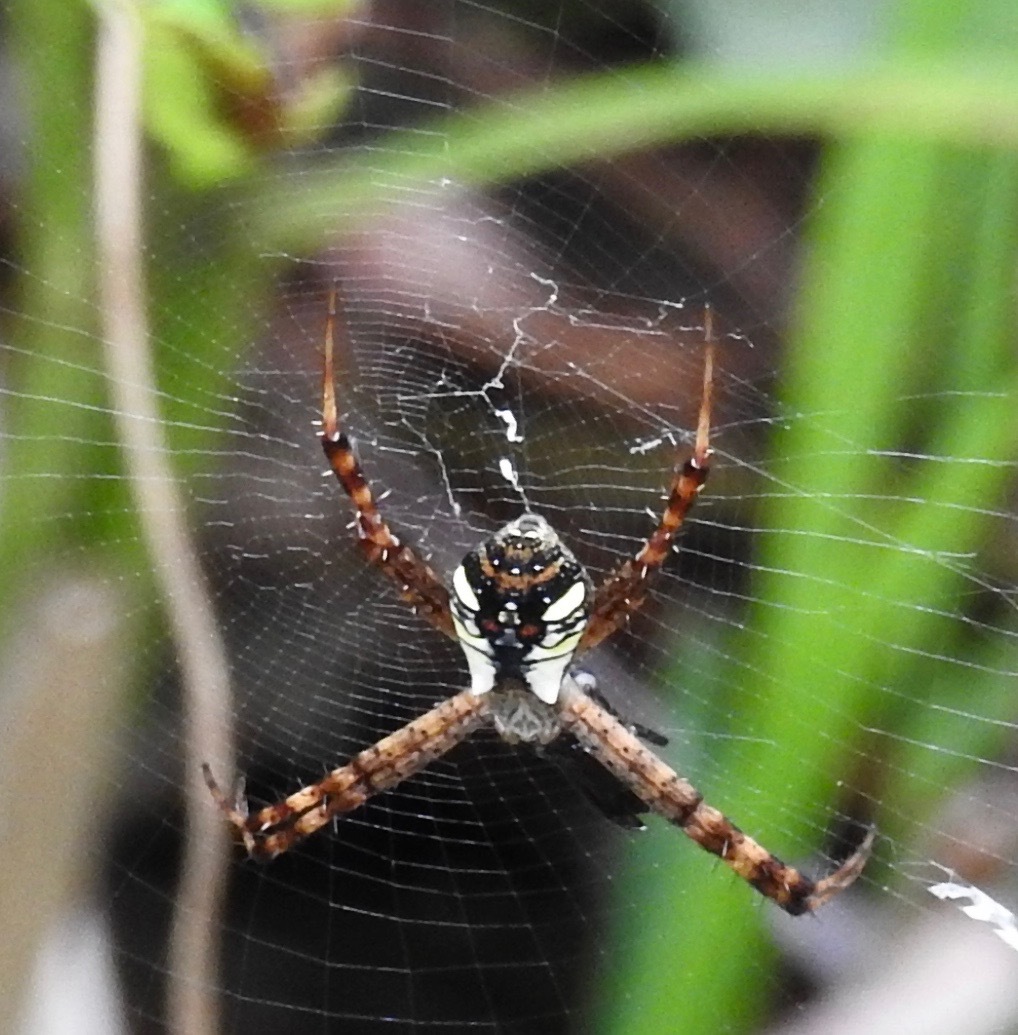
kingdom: Animalia
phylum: Arthropoda
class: Arachnida
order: Araneae
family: Araneidae
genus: Argiope
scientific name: Argiope perforata
